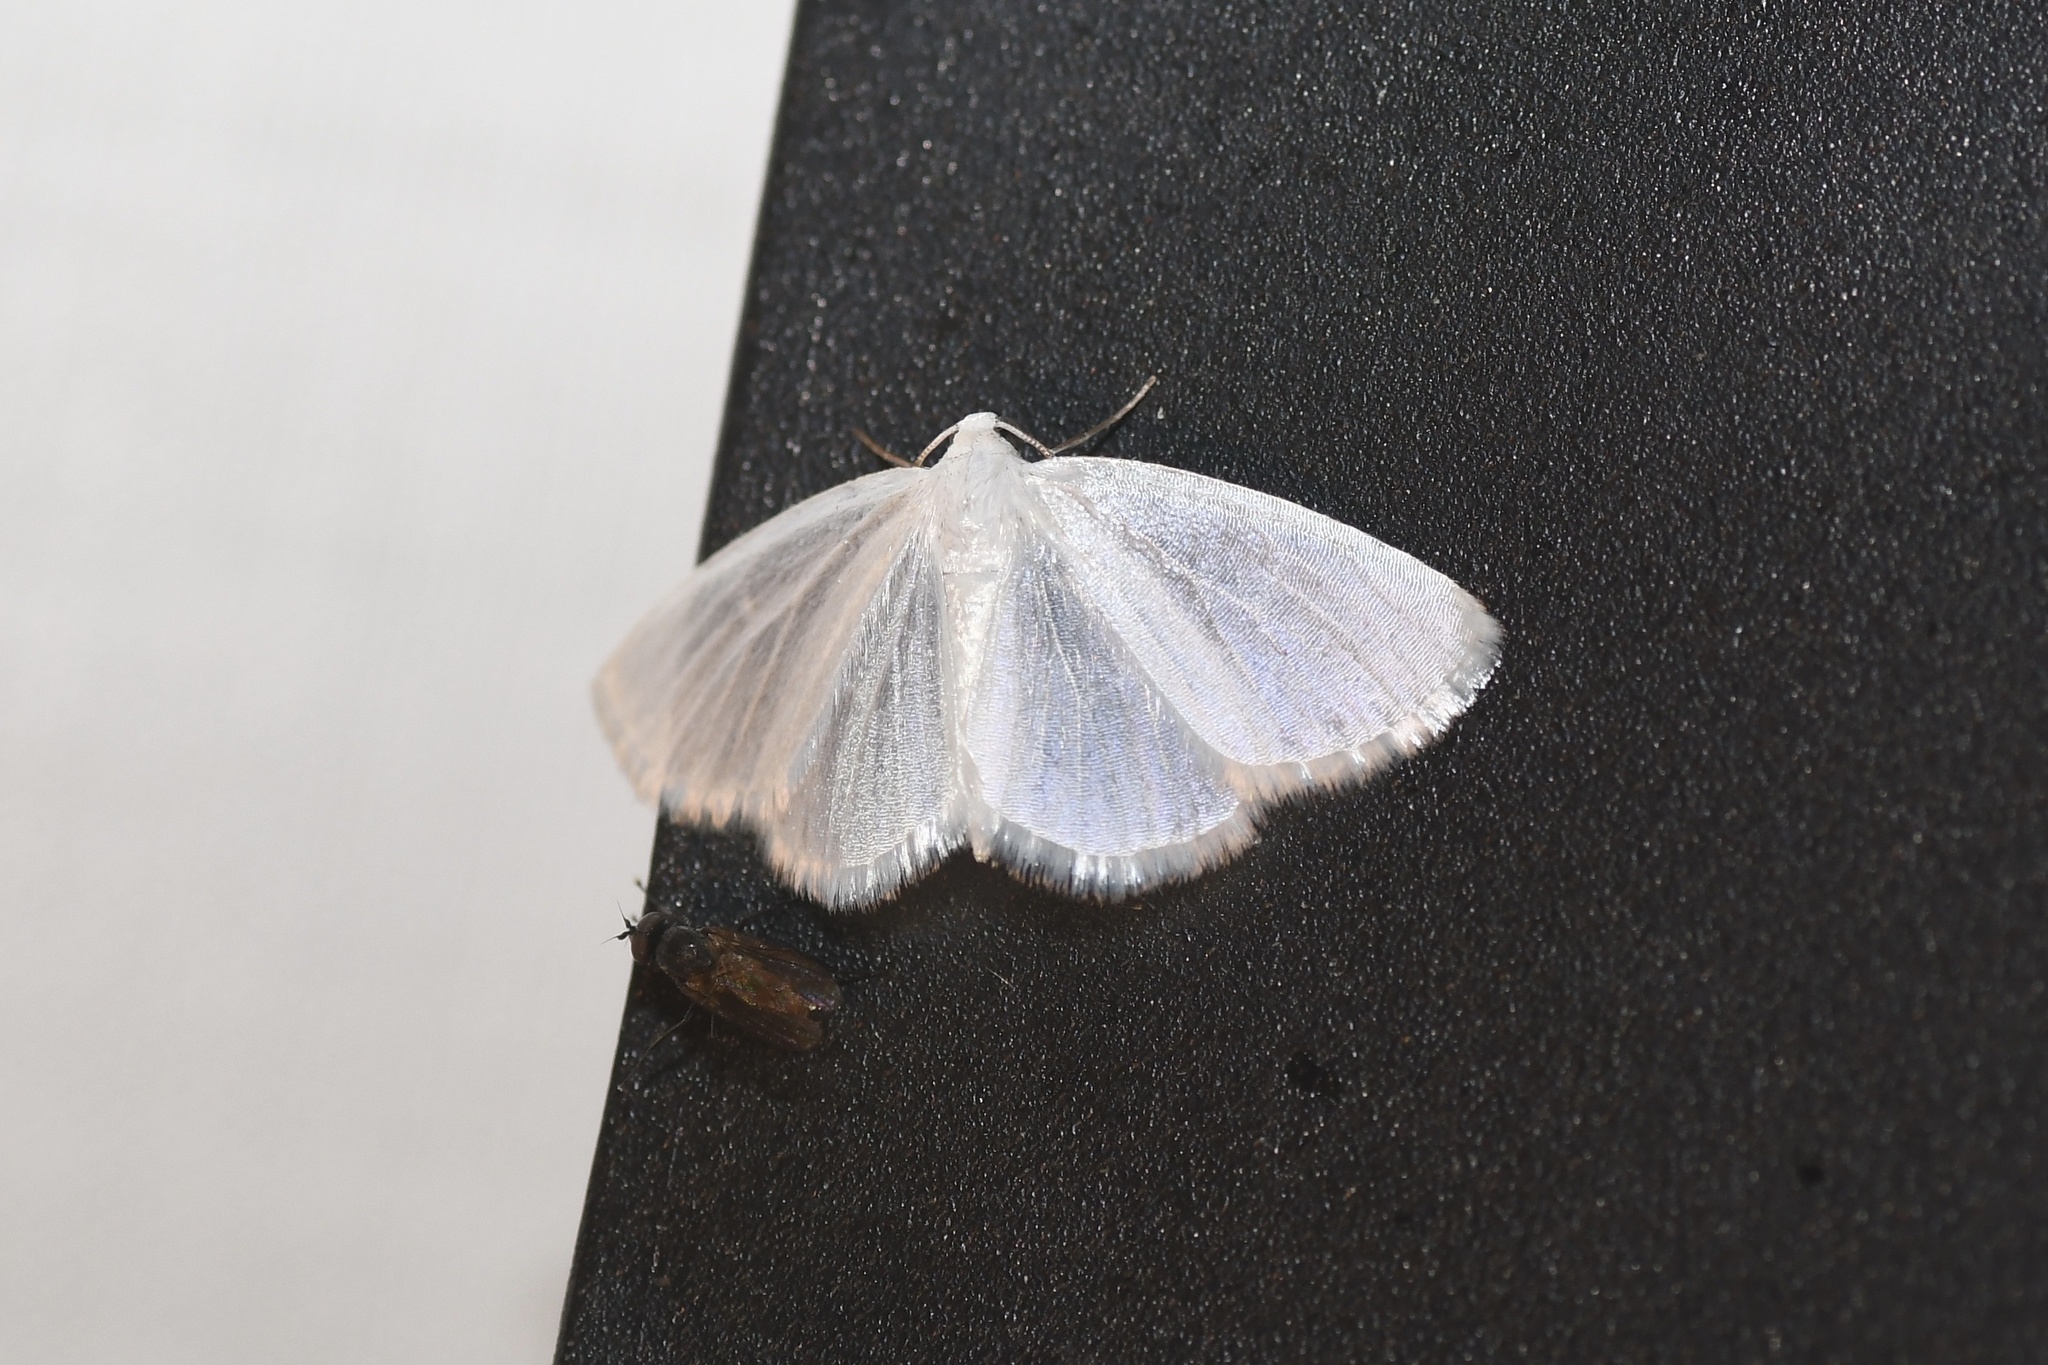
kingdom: Animalia
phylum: Arthropoda
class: Insecta
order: Lepidoptera
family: Geometridae
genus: Lomographa
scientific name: Lomographa vestaliata
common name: White spring moth
